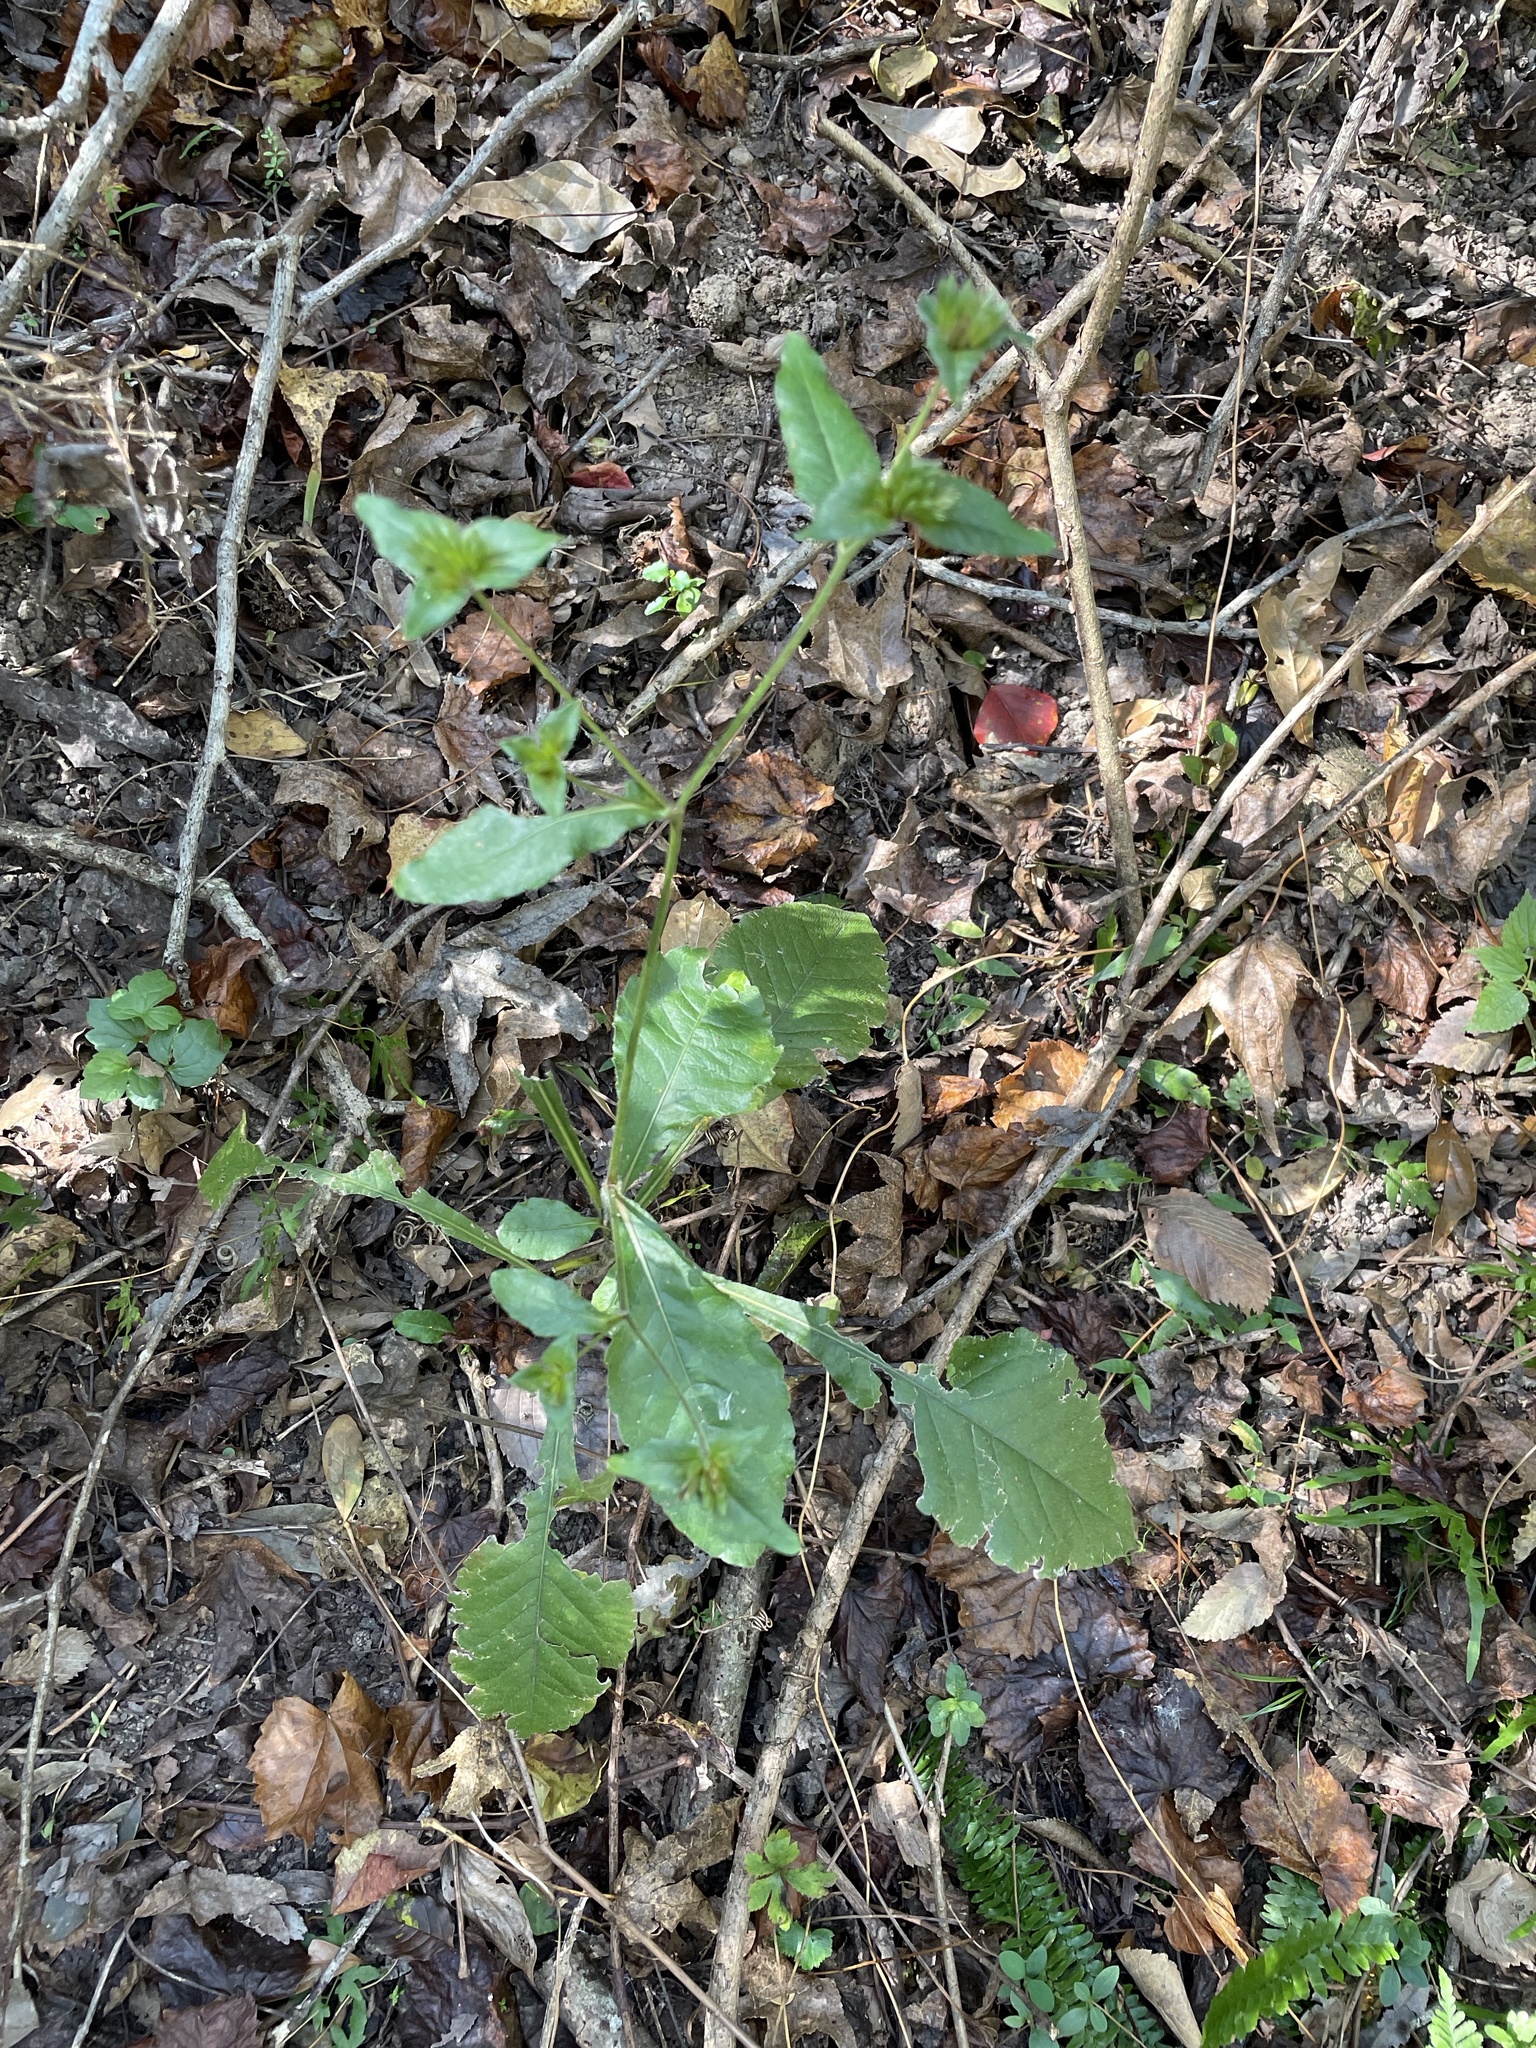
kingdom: Plantae
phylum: Tracheophyta
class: Magnoliopsida
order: Asterales
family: Asteraceae
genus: Elephantopus
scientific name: Elephantopus carolinianus
